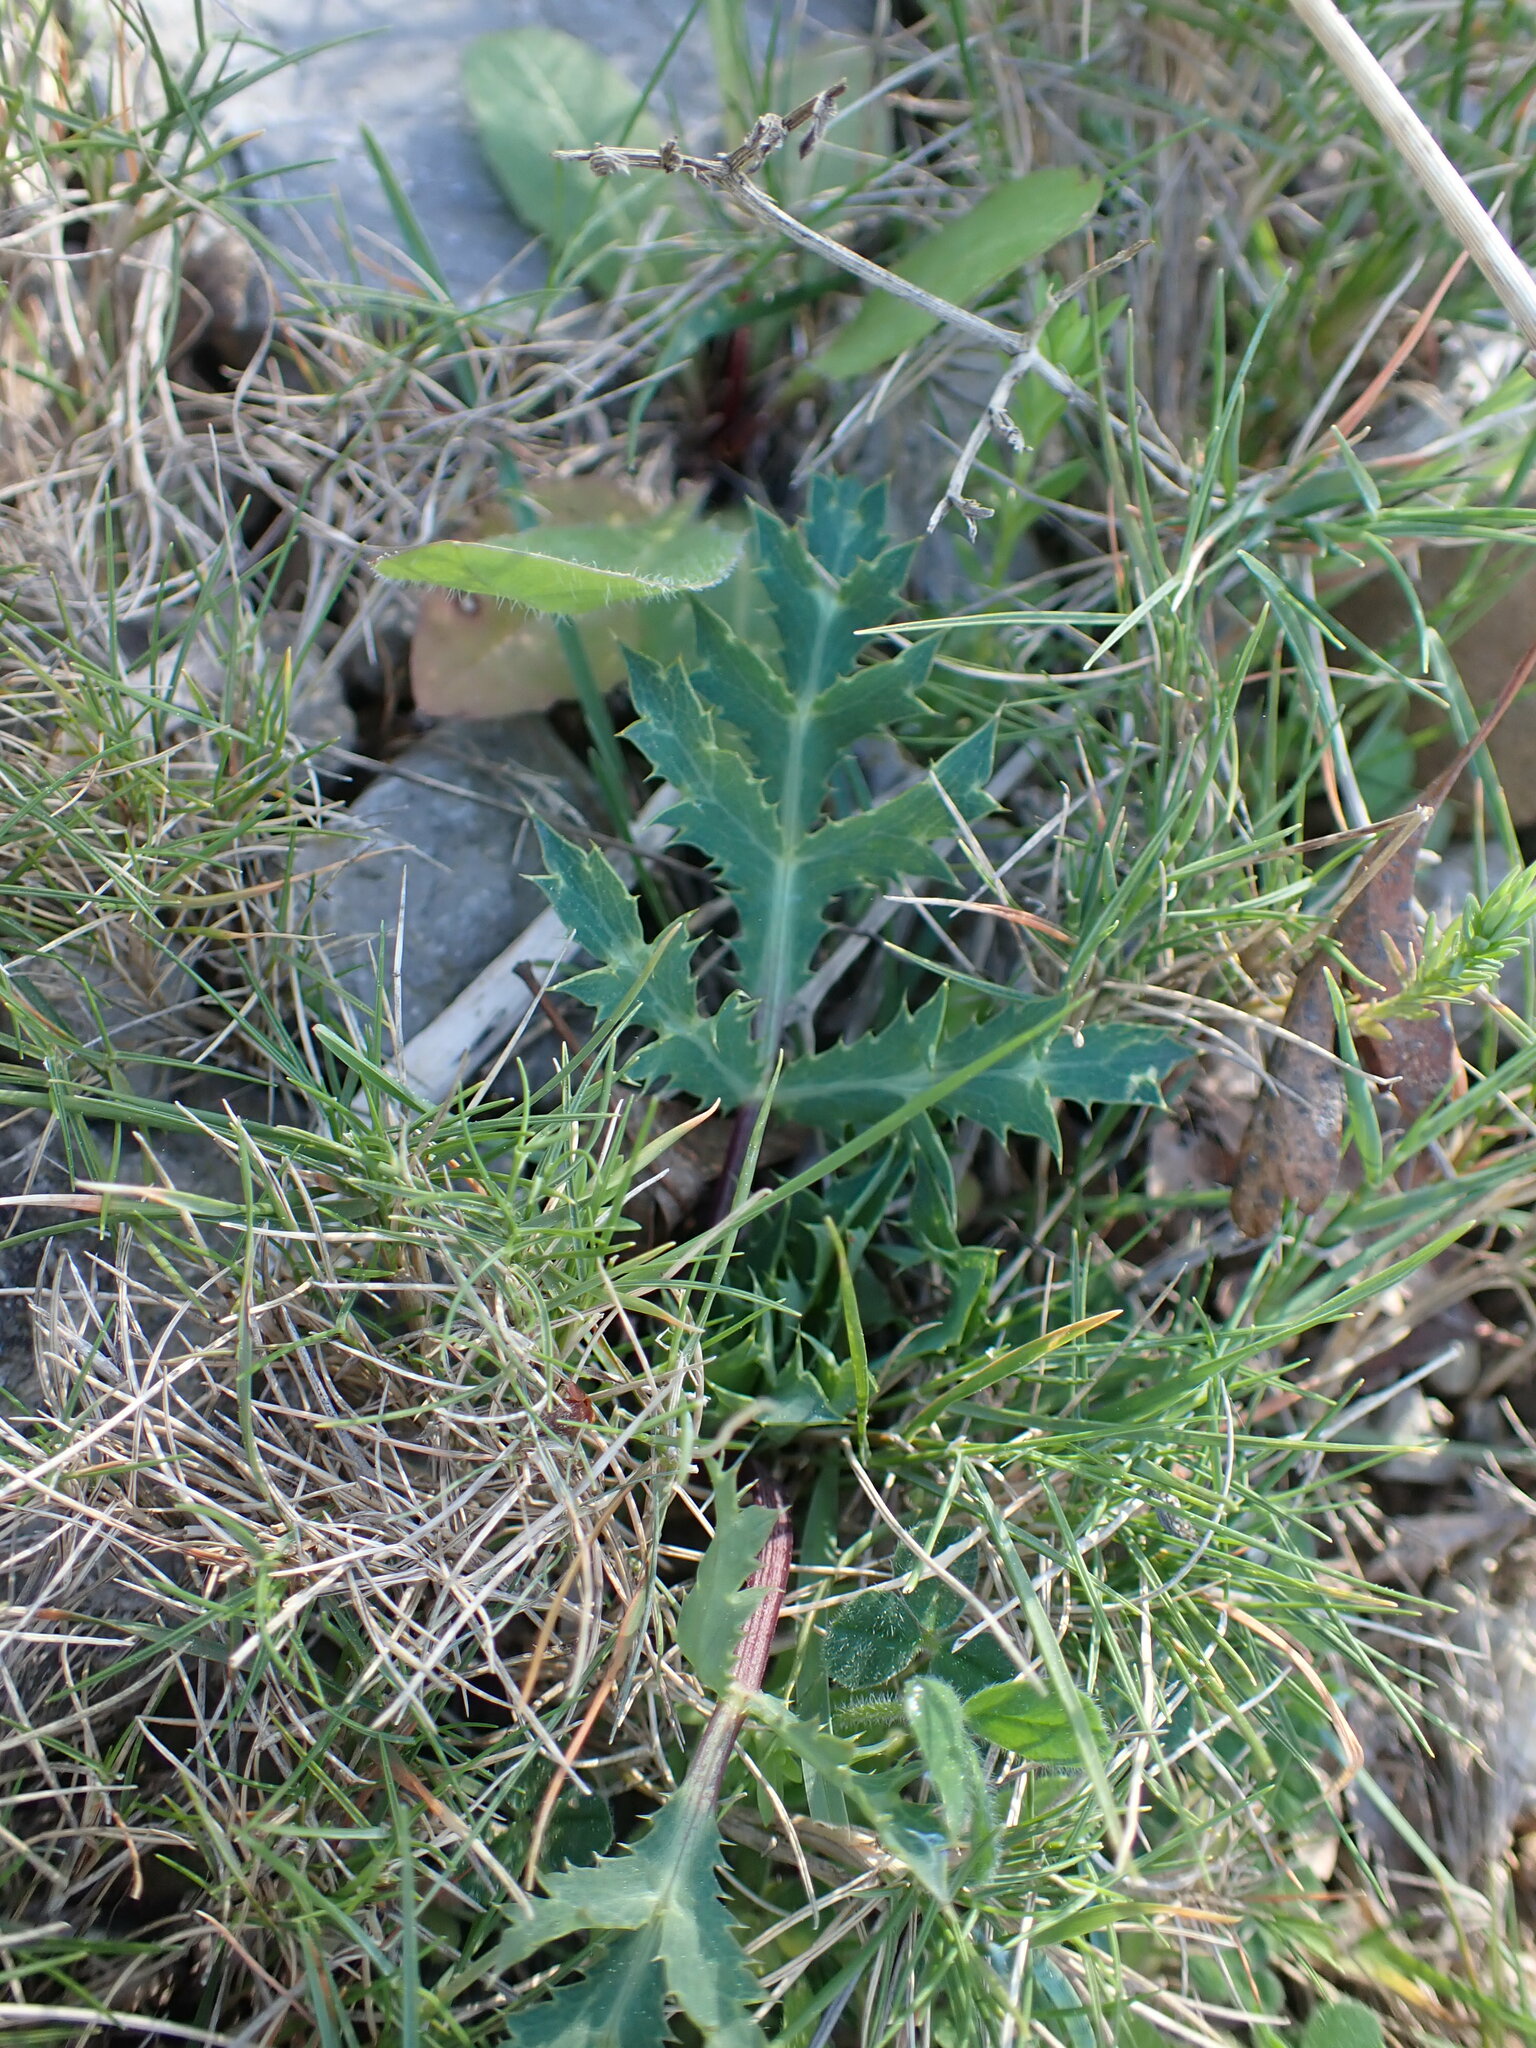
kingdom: Plantae
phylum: Tracheophyta
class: Magnoliopsida
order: Apiales
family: Apiaceae
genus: Eryngium
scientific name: Eryngium campestre
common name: Field eryngo
